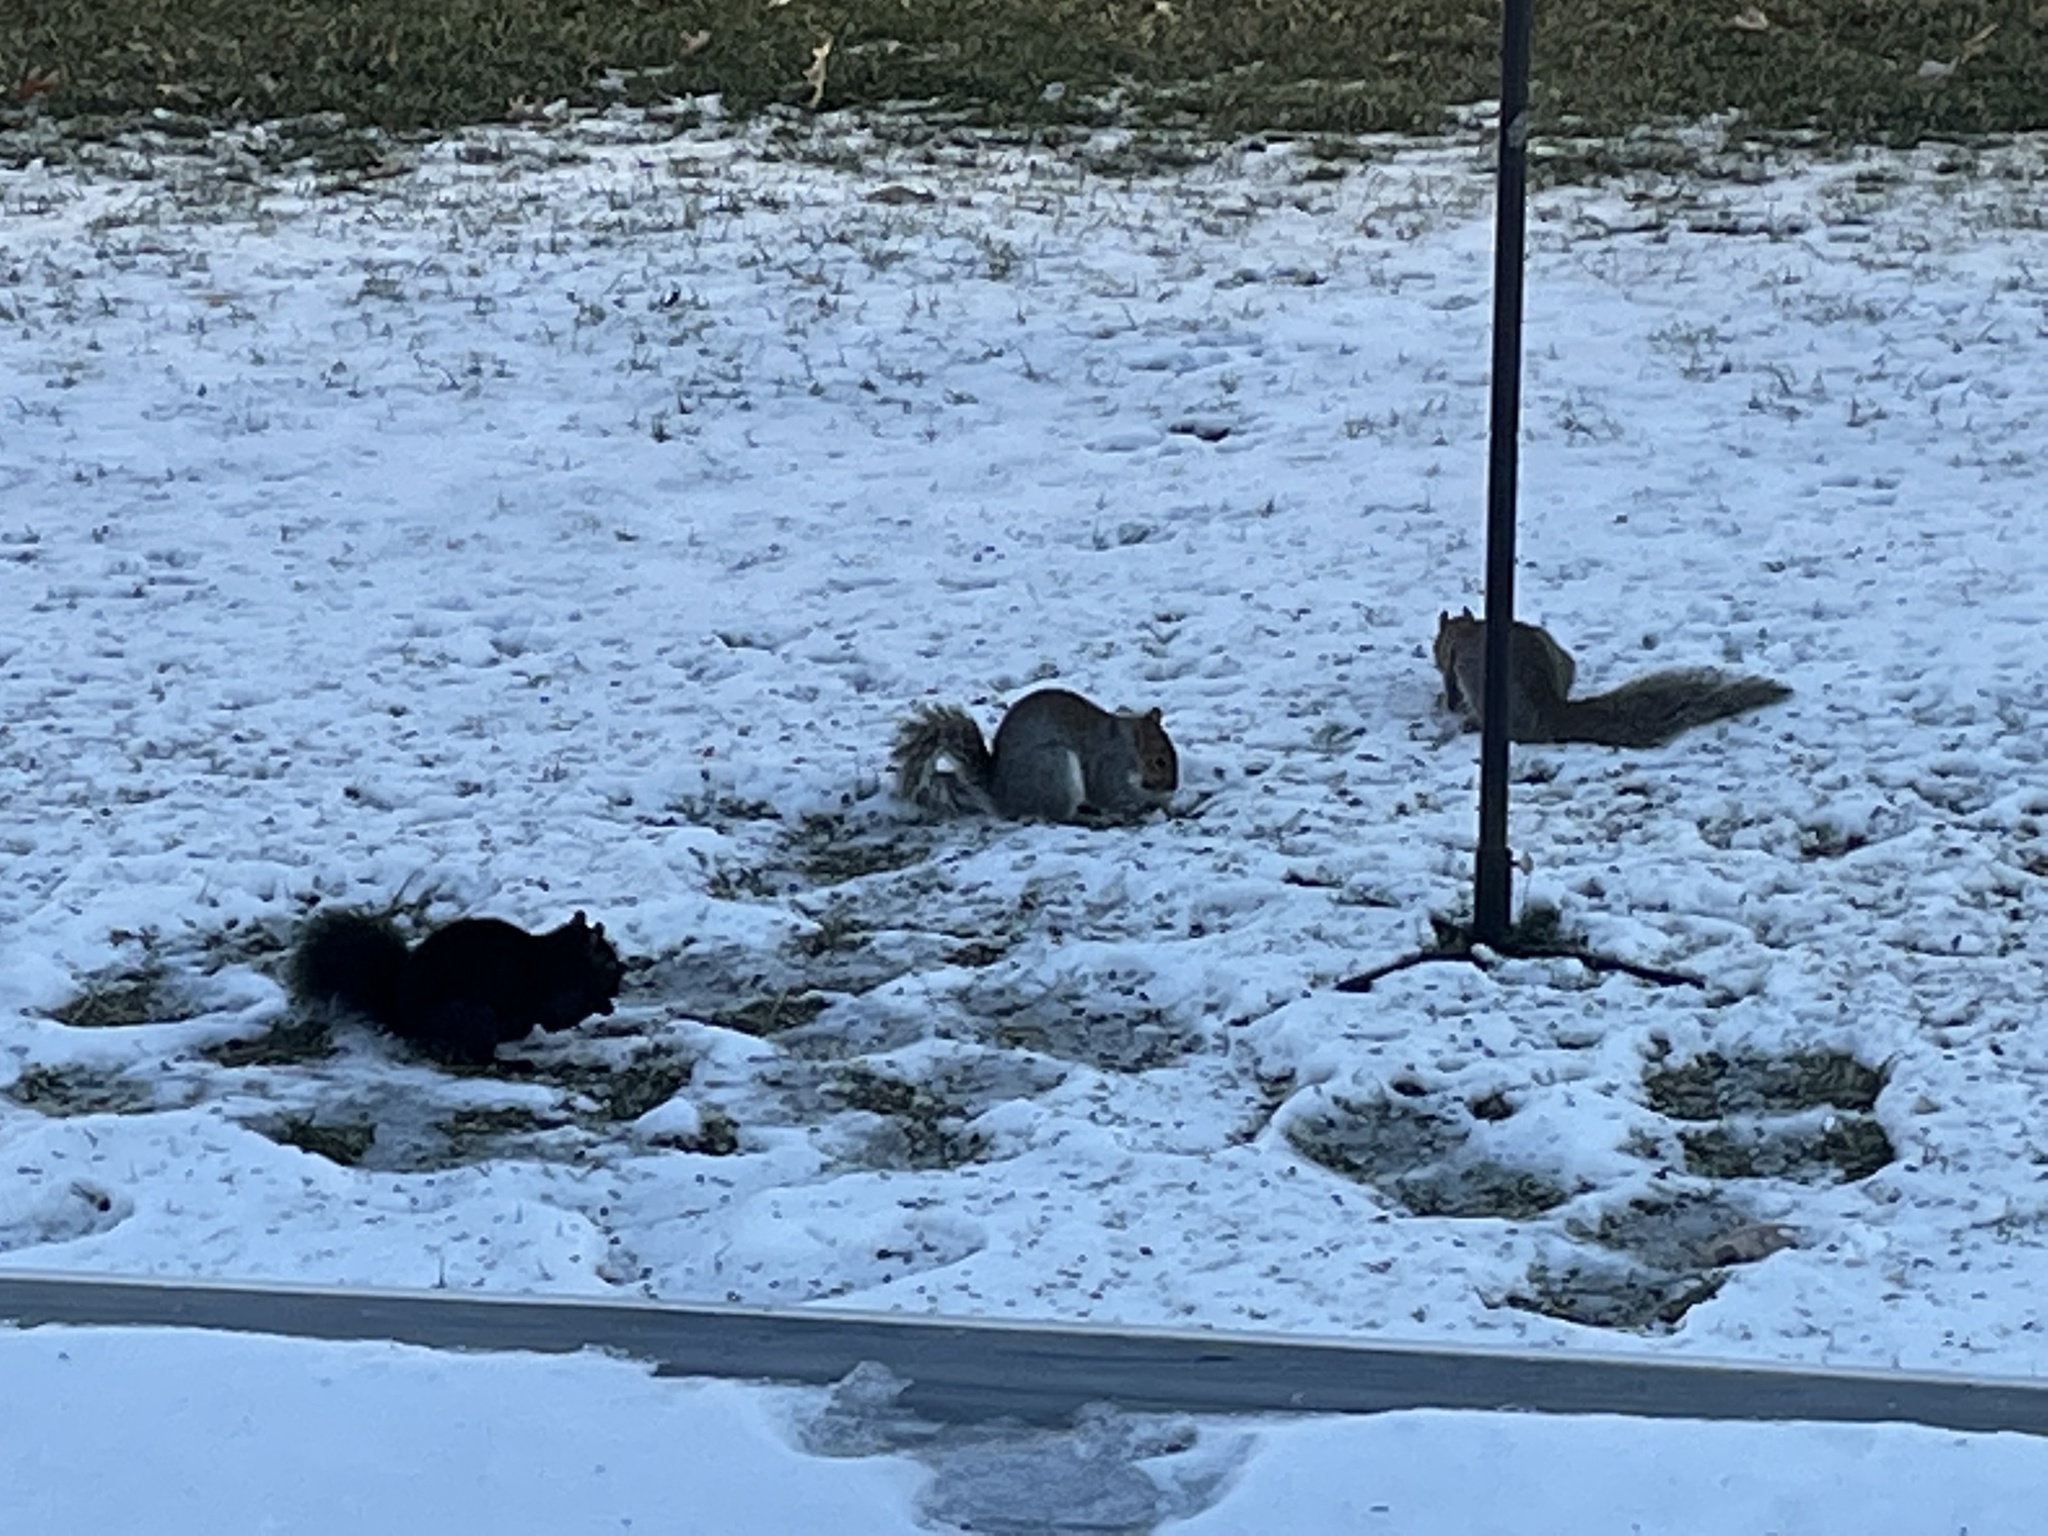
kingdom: Animalia
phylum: Chordata
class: Mammalia
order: Rodentia
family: Sciuridae
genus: Sciurus
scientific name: Sciurus carolinensis
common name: Eastern gray squirrel
